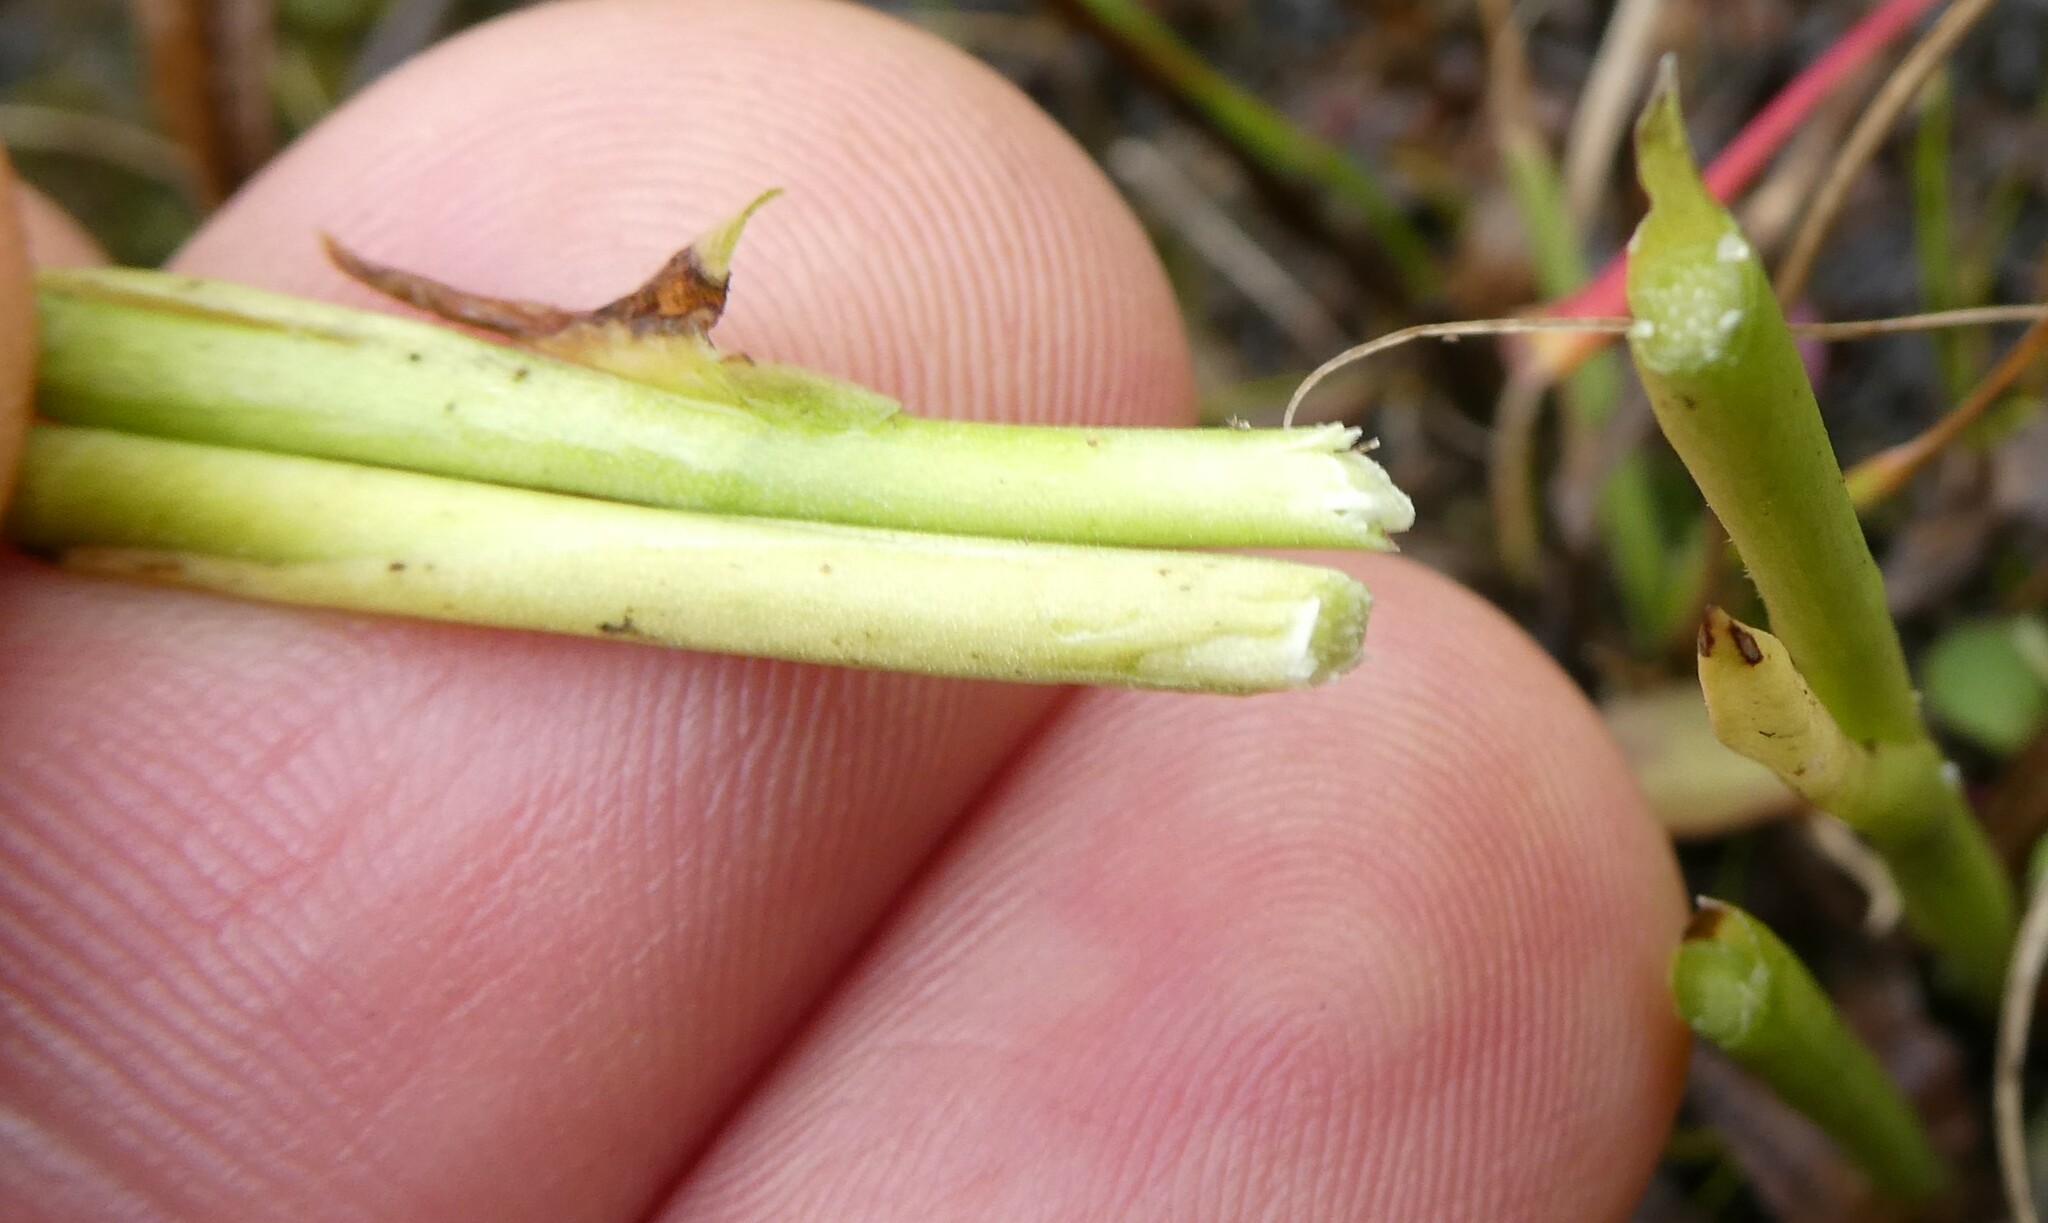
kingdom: Plantae
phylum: Tracheophyta
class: Liliopsida
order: Asparagales
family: Orchidaceae
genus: Spiranthes
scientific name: Spiranthes incurva
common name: Sphinx ladies'-tresses
